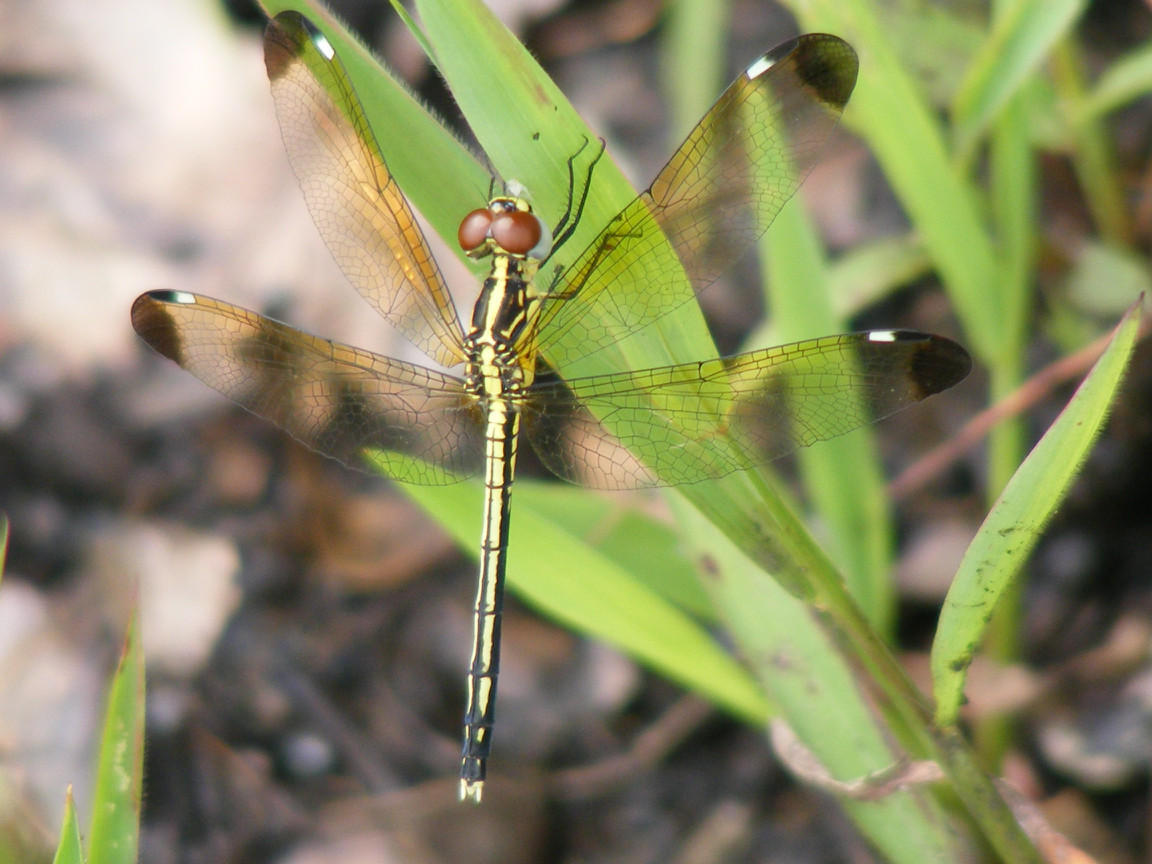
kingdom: Animalia
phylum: Arthropoda
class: Insecta
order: Odonata
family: Libellulidae
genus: Hemistigma
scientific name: Hemistigma albipunctum
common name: African pied-spot
